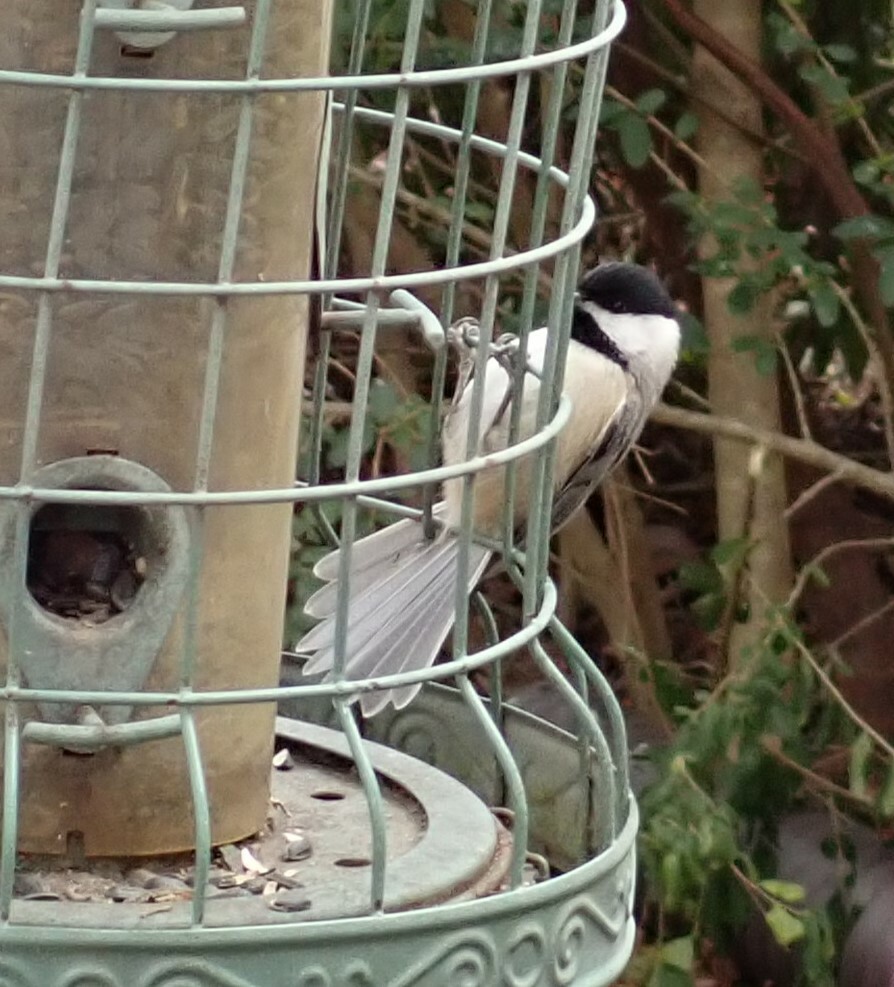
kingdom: Animalia
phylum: Chordata
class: Aves
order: Passeriformes
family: Paridae
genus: Poecile
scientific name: Poecile carolinensis
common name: Carolina chickadee
